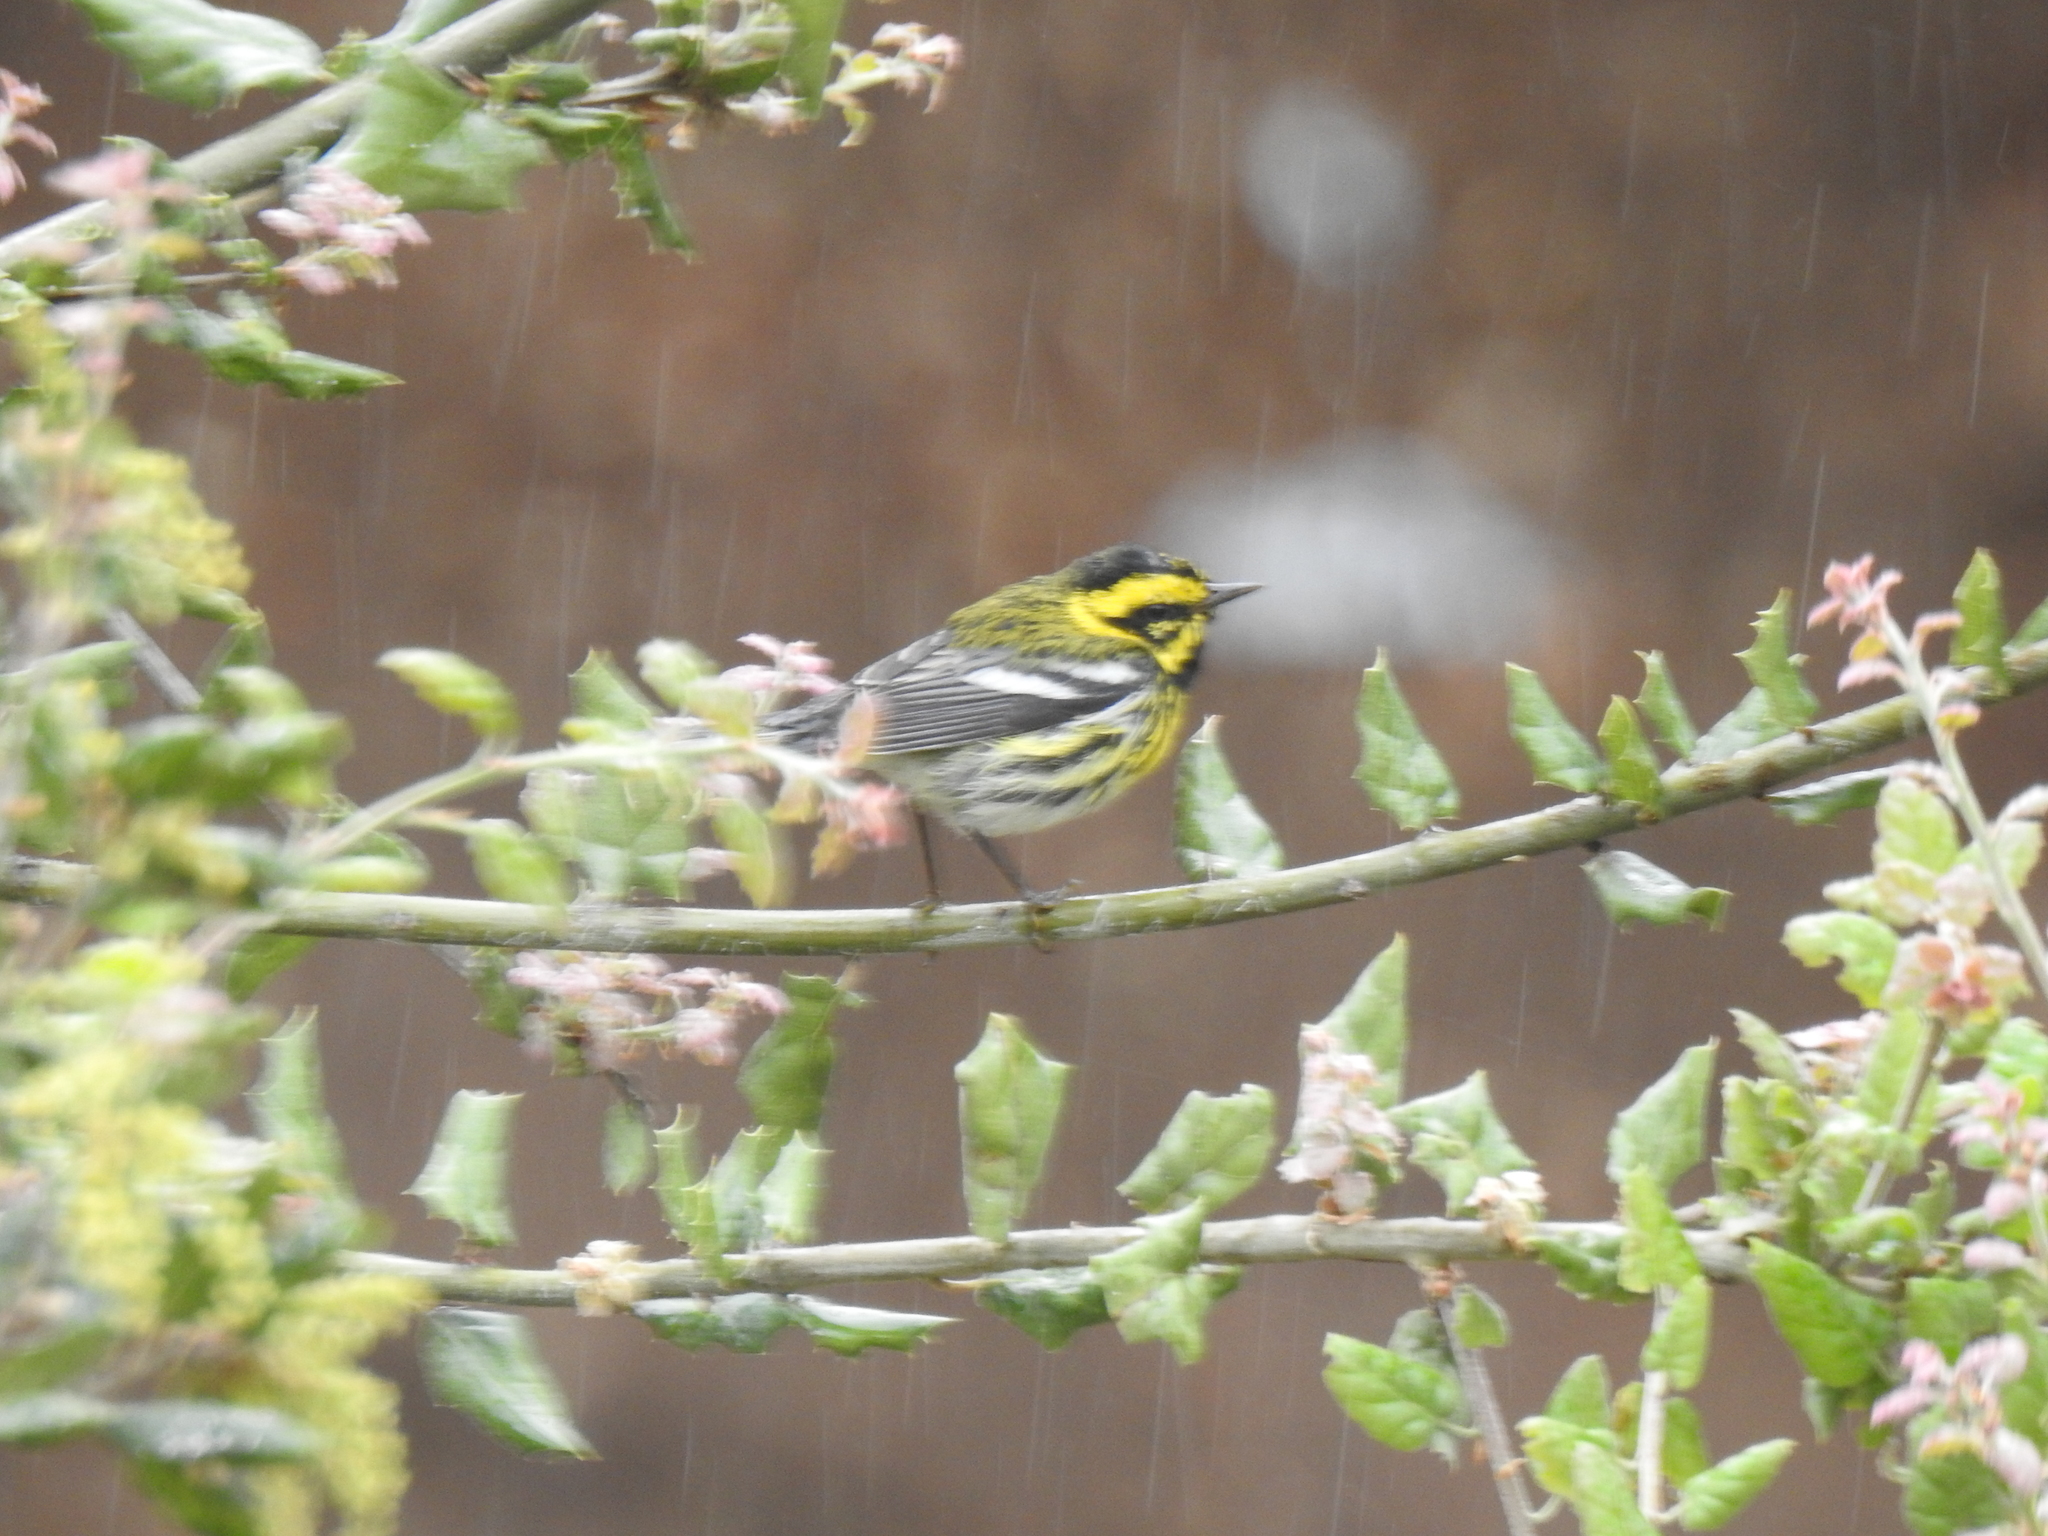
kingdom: Animalia
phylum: Chordata
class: Aves
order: Passeriformes
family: Parulidae
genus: Setophaga
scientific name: Setophaga townsendi
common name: Townsend's warbler
